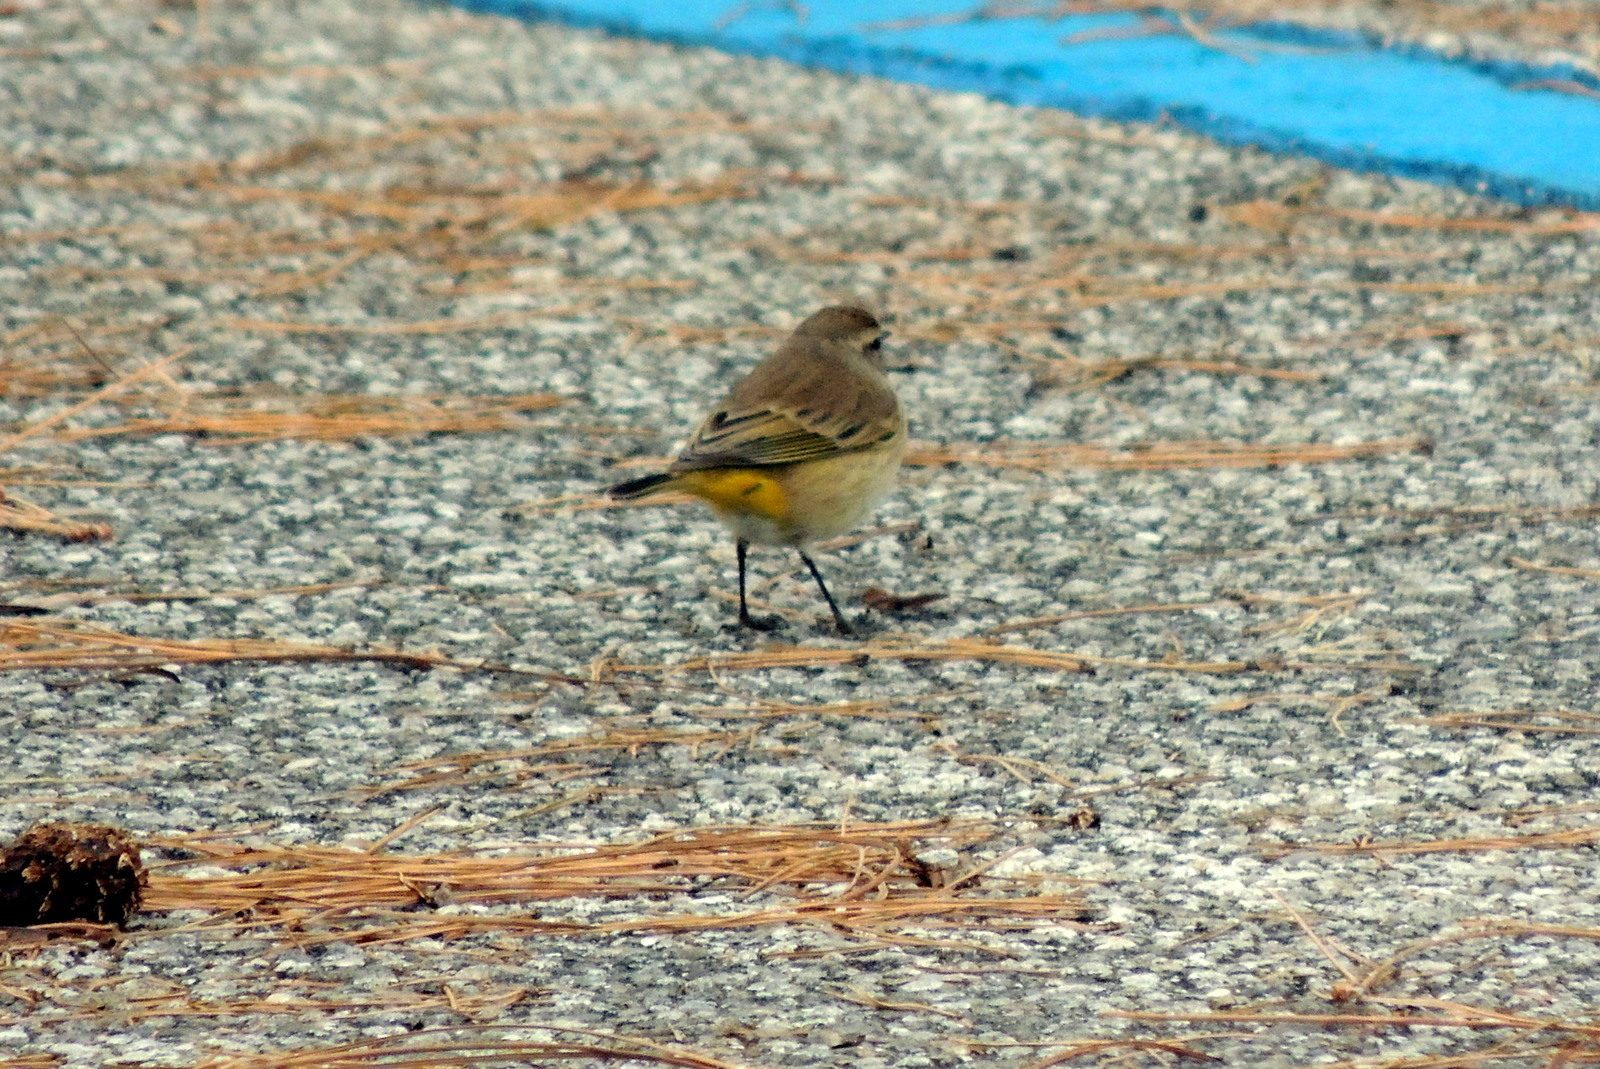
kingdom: Animalia
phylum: Chordata
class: Aves
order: Passeriformes
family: Parulidae
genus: Setophaga
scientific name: Setophaga palmarum
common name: Palm warbler
